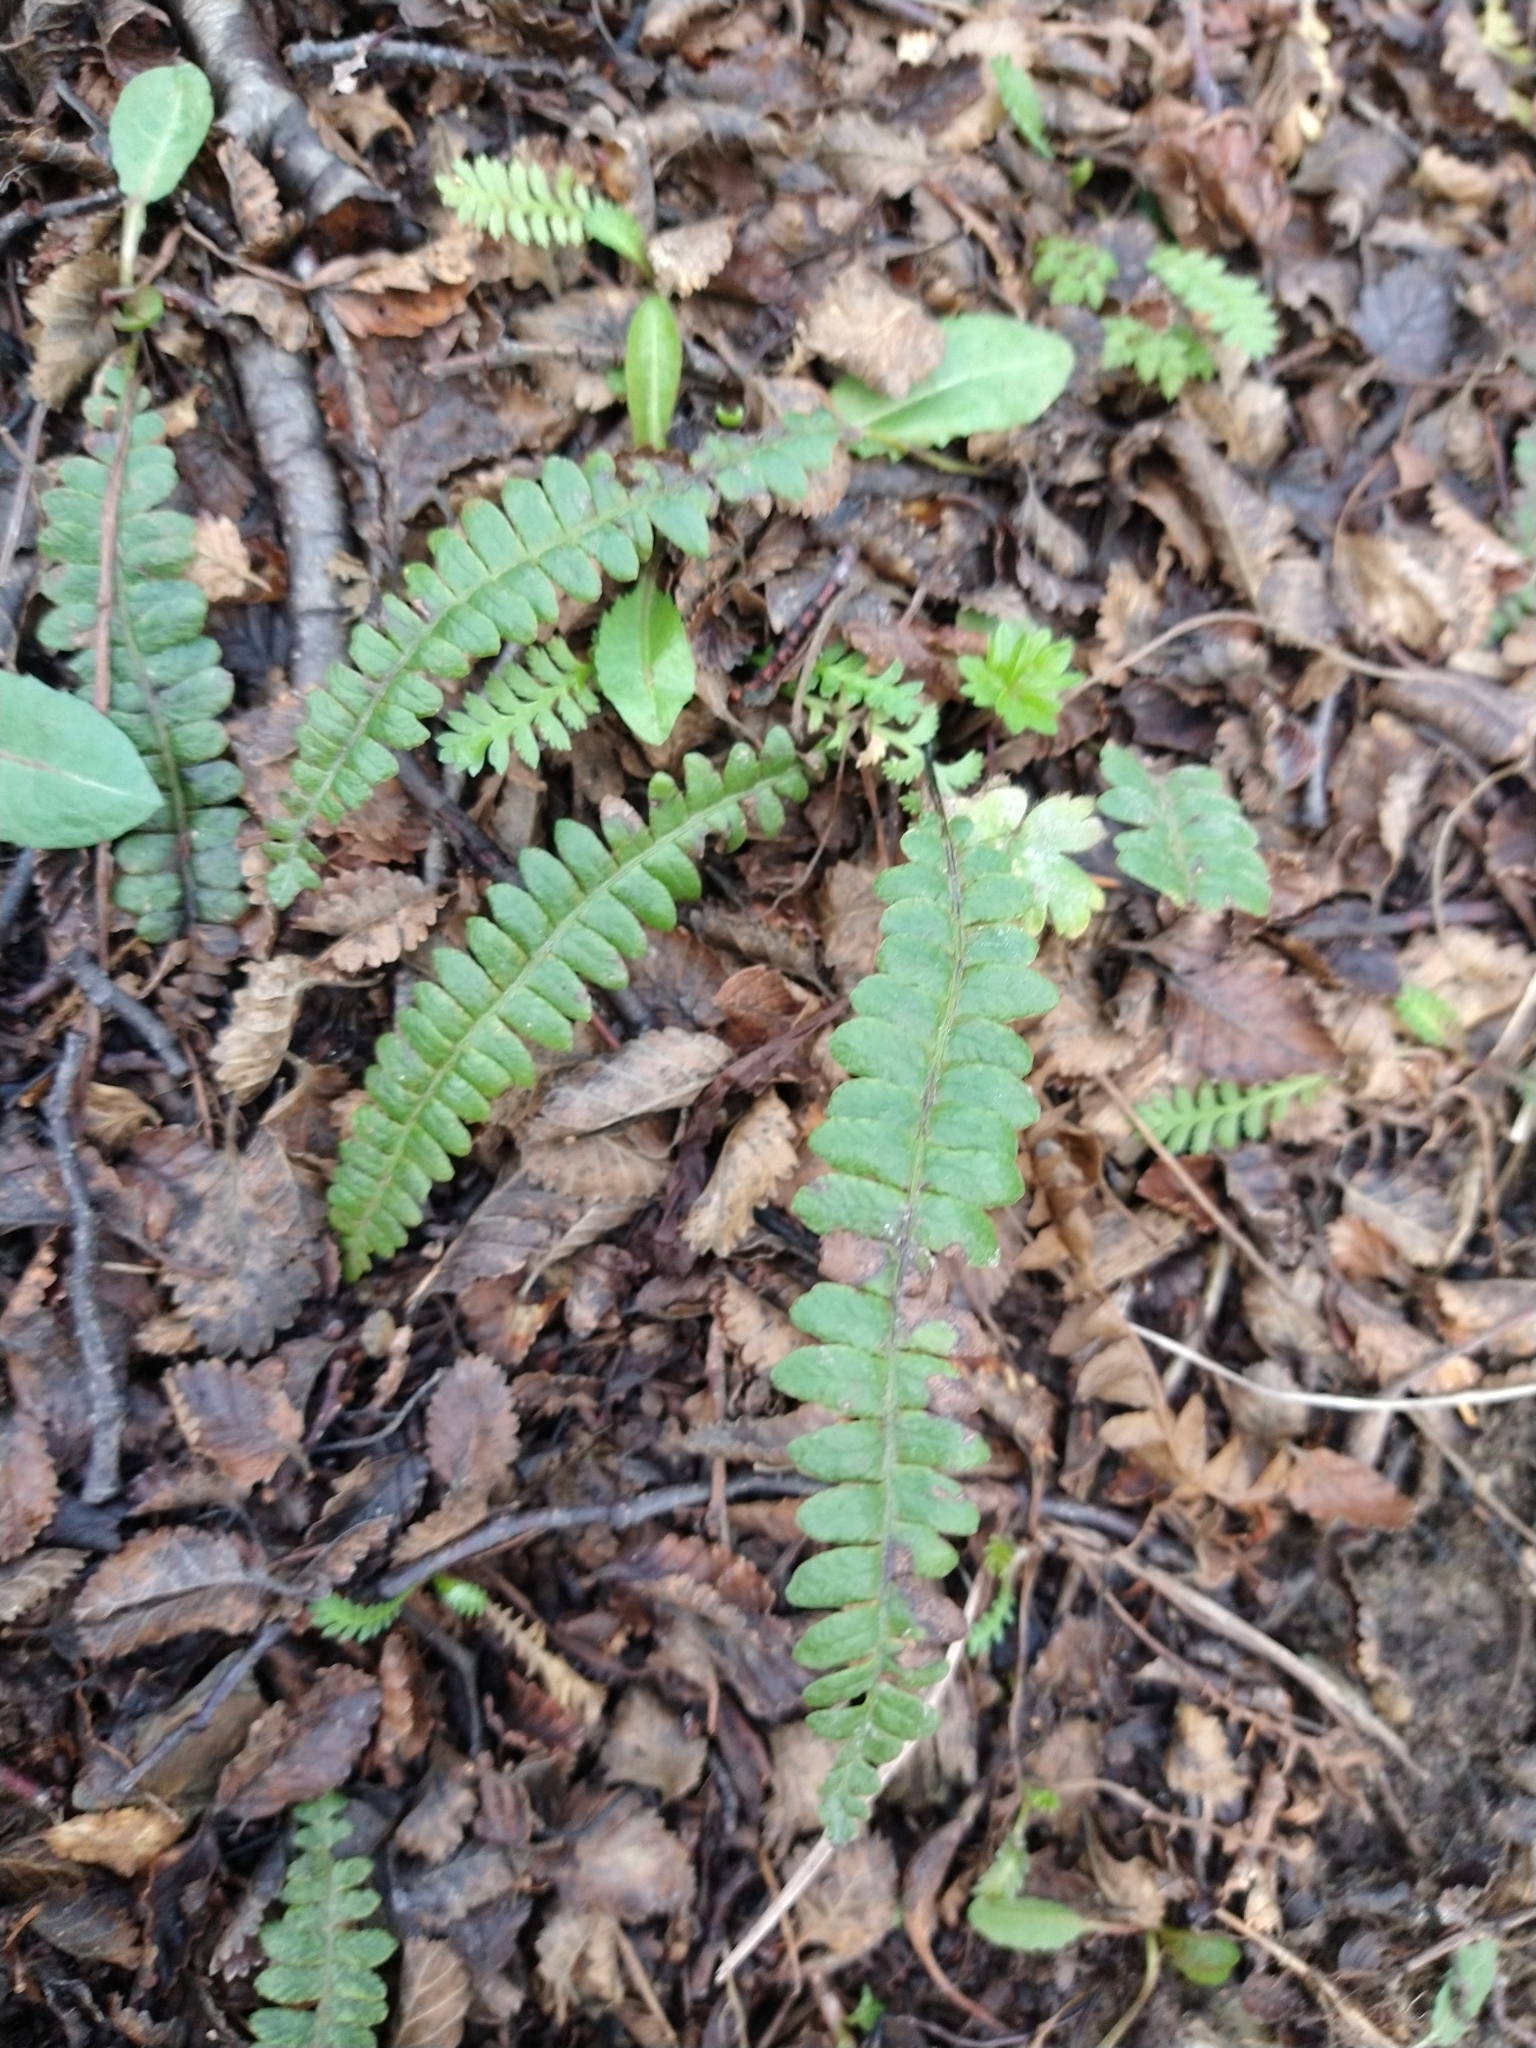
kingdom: Plantae
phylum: Tracheophyta
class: Polypodiopsida
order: Polypodiales
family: Blechnaceae
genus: Austroblechnum
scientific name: Austroblechnum penna-marina
